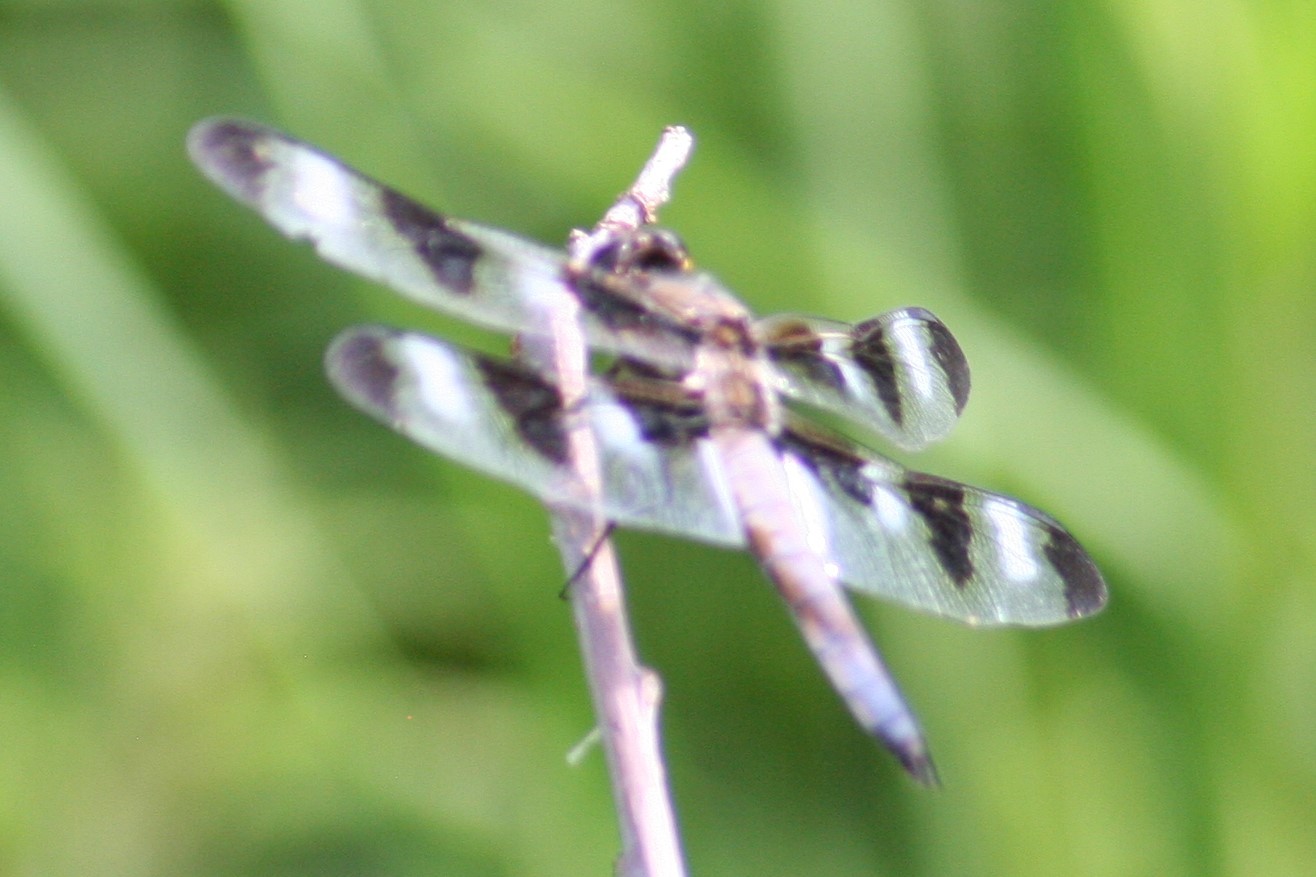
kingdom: Animalia
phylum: Arthropoda
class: Insecta
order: Odonata
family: Libellulidae
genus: Libellula
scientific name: Libellula pulchella
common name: Twelve-spotted skimmer
